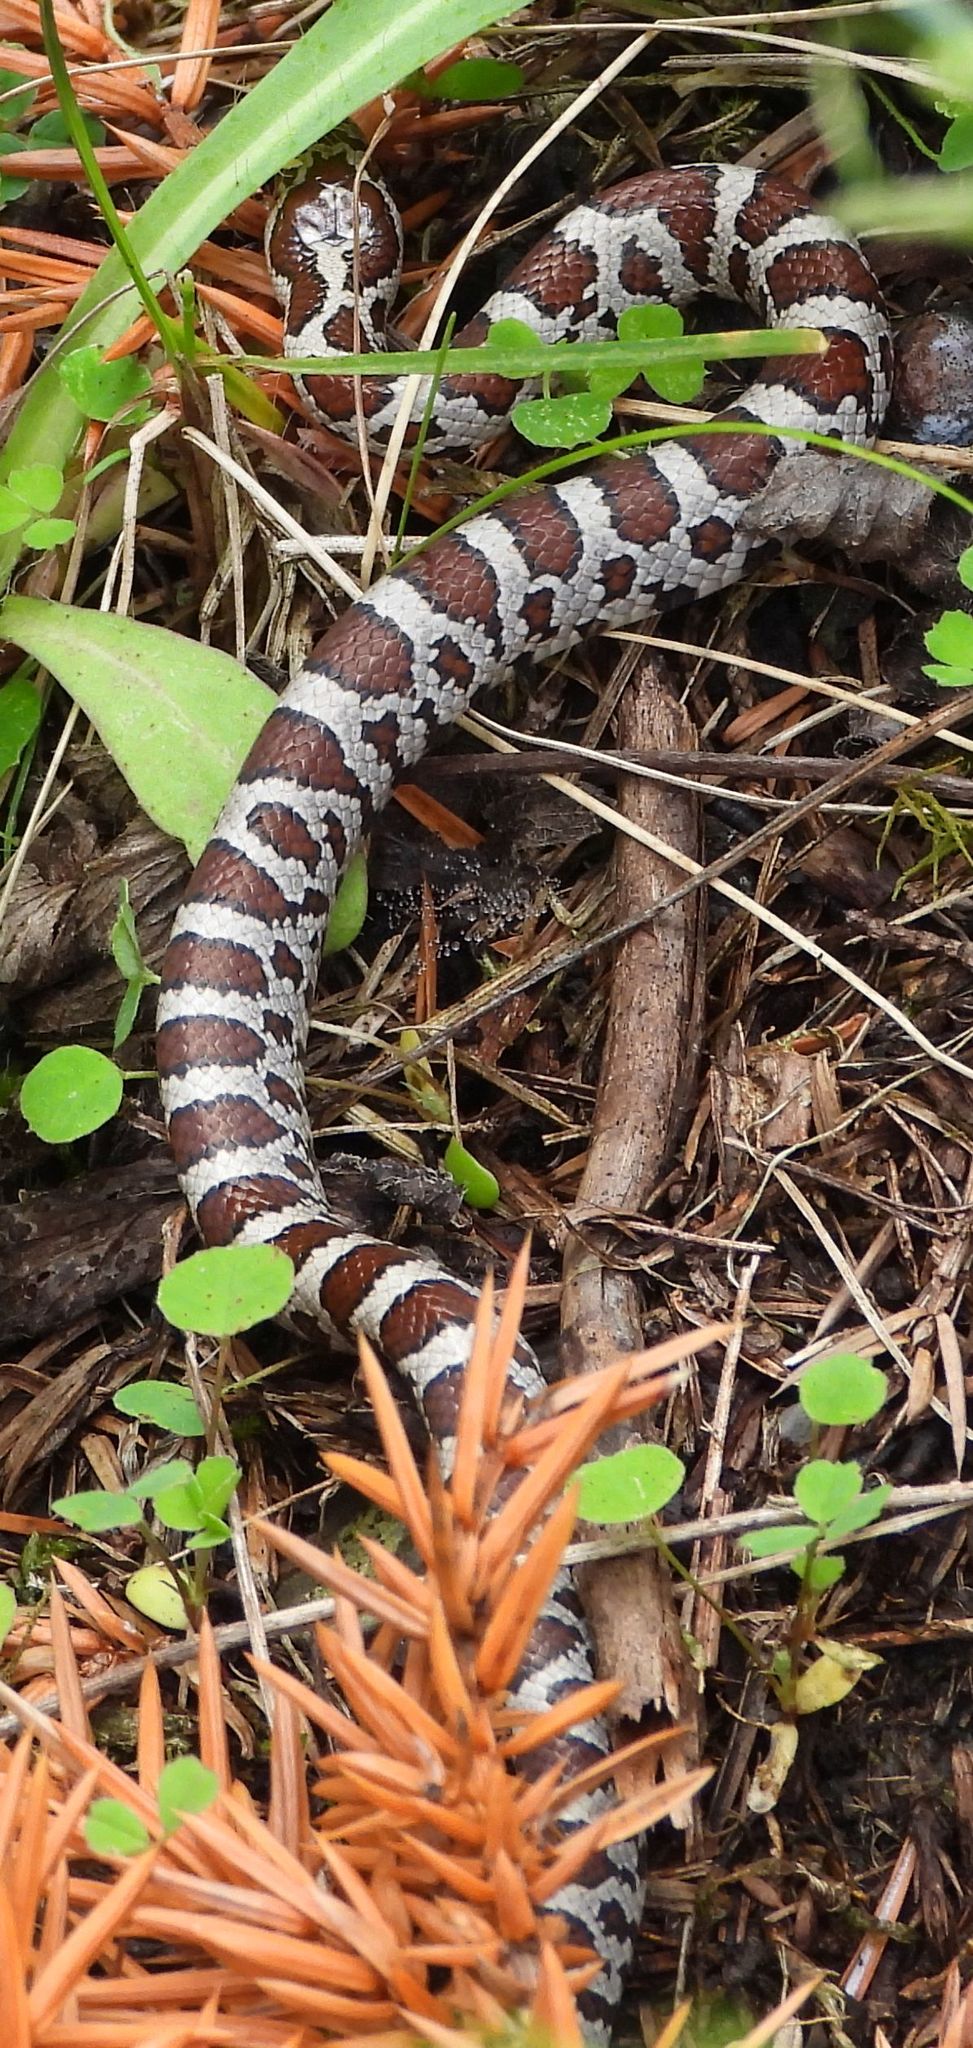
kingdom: Animalia
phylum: Chordata
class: Squamata
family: Colubridae
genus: Lampropeltis
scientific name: Lampropeltis triangulum
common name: Eastern milksnake
